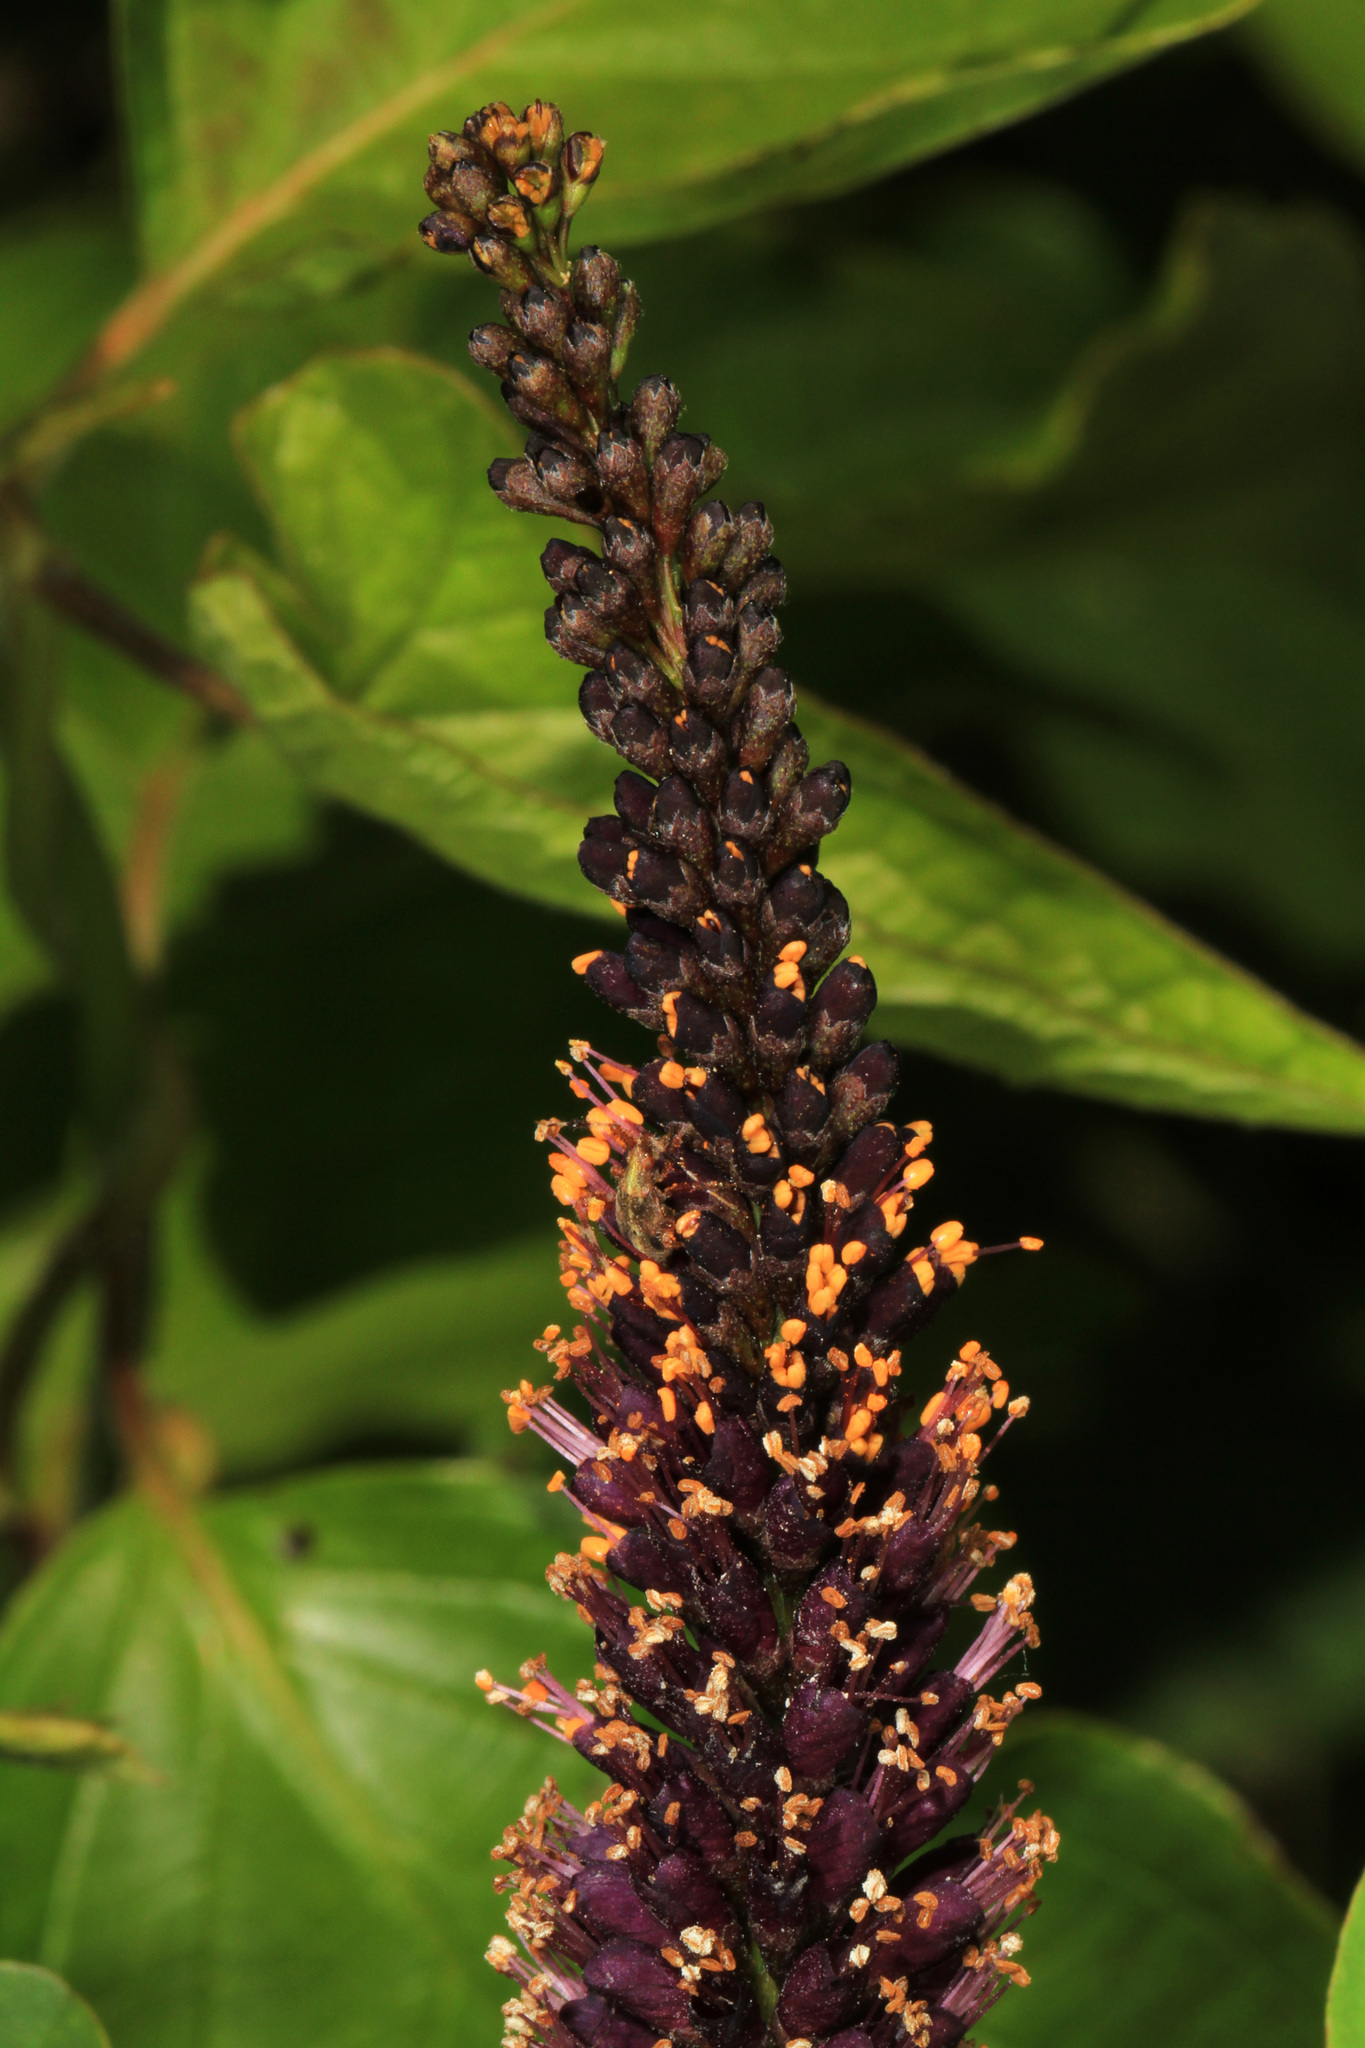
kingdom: Plantae
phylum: Tracheophyta
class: Magnoliopsida
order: Fabales
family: Fabaceae
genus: Amorpha
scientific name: Amorpha fruticosa
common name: False indigo
